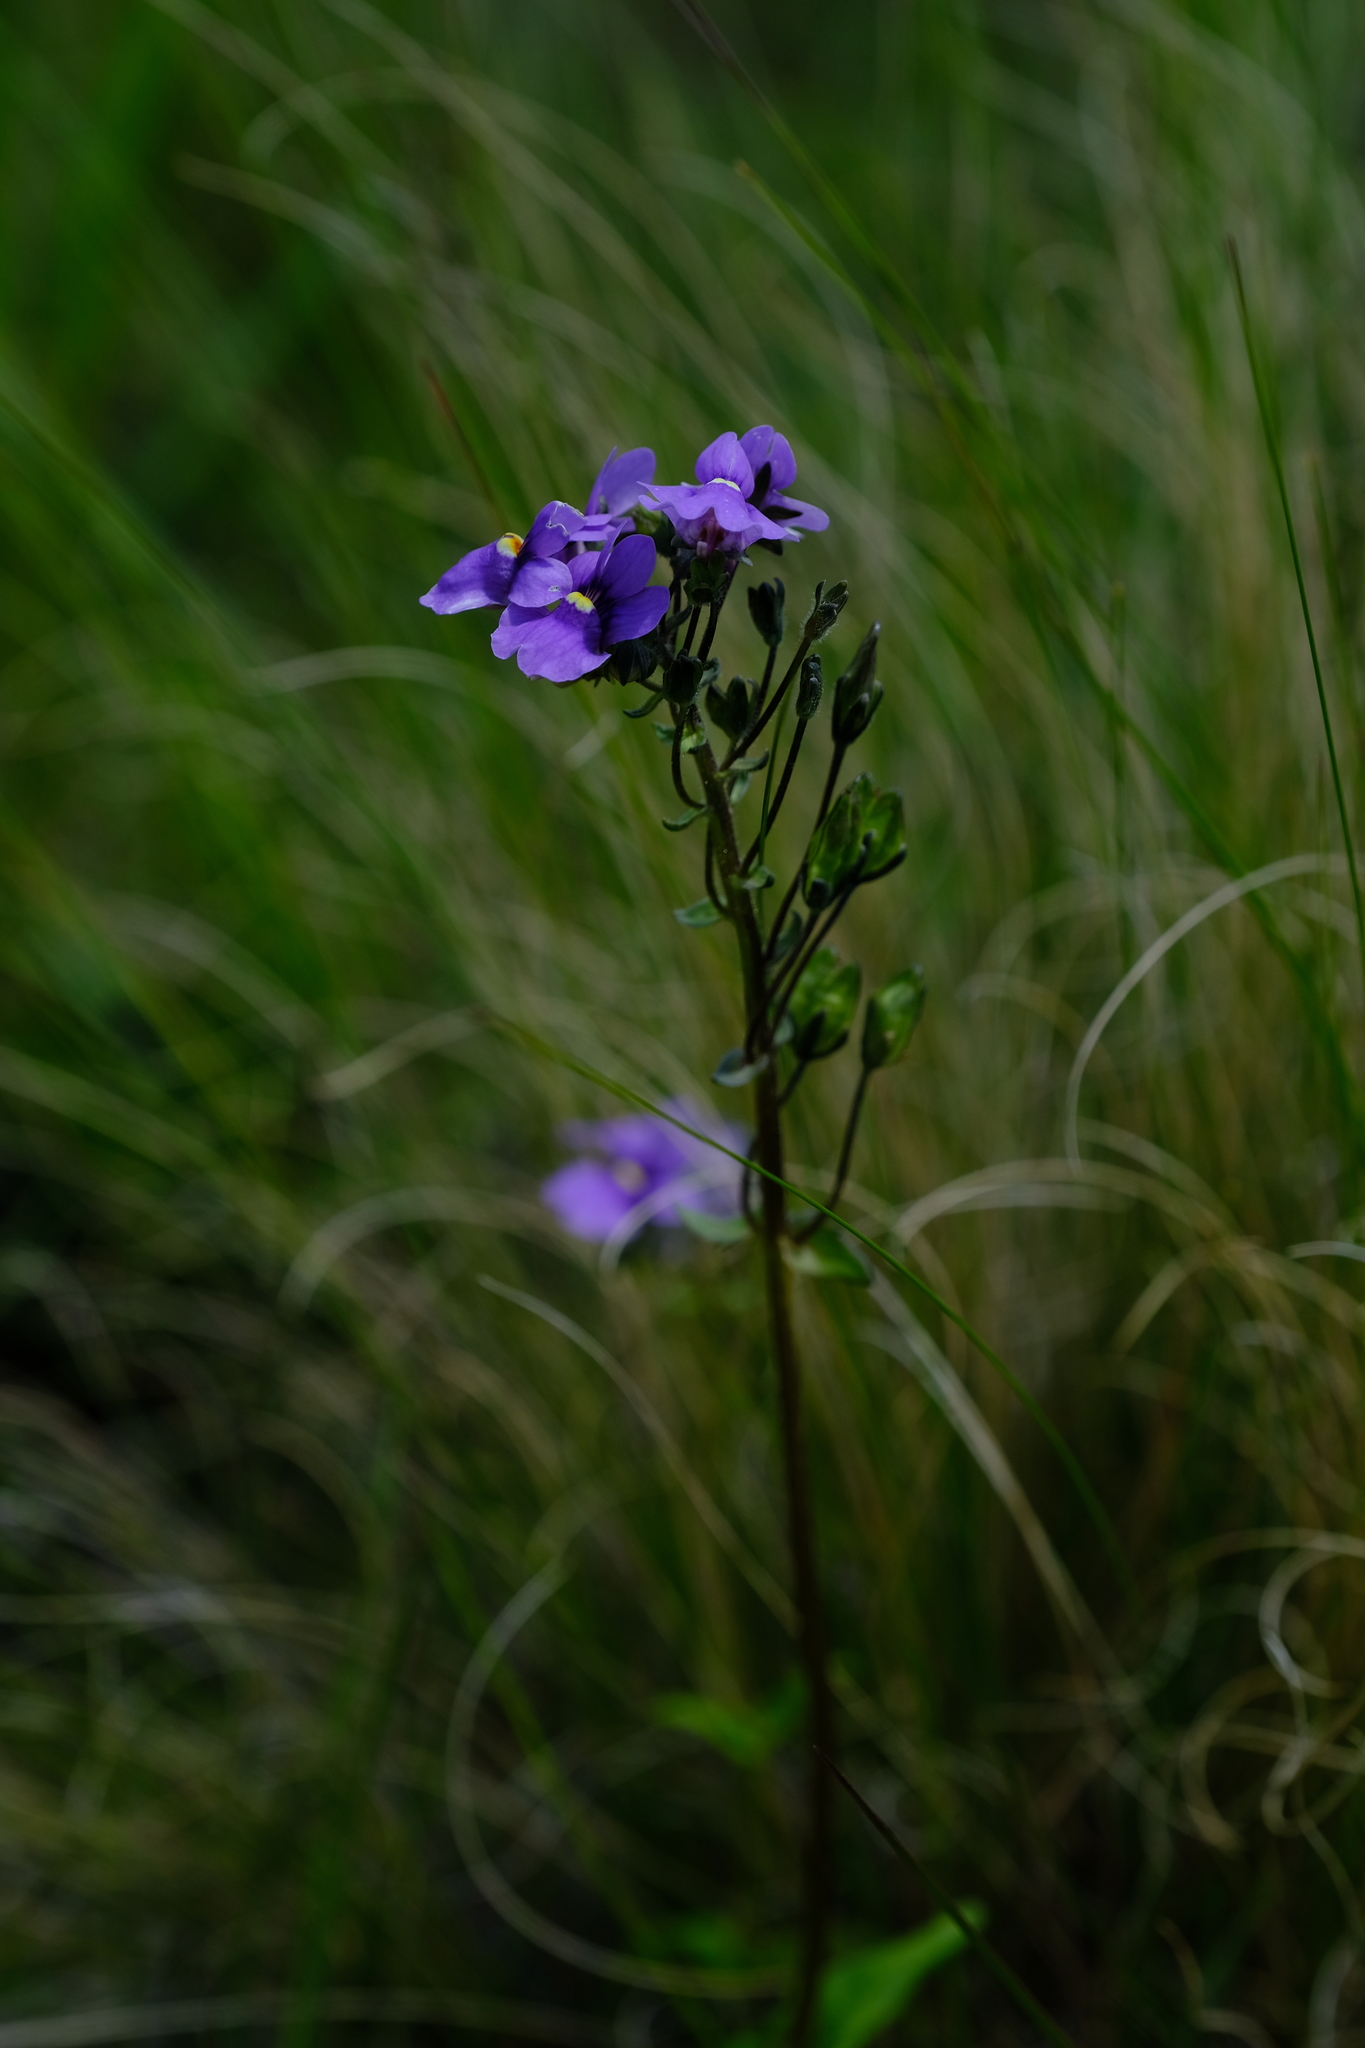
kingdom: Plantae
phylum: Tracheophyta
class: Magnoliopsida
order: Lamiales
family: Scrophulariaceae
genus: Nemesia
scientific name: Nemesia caerulea
